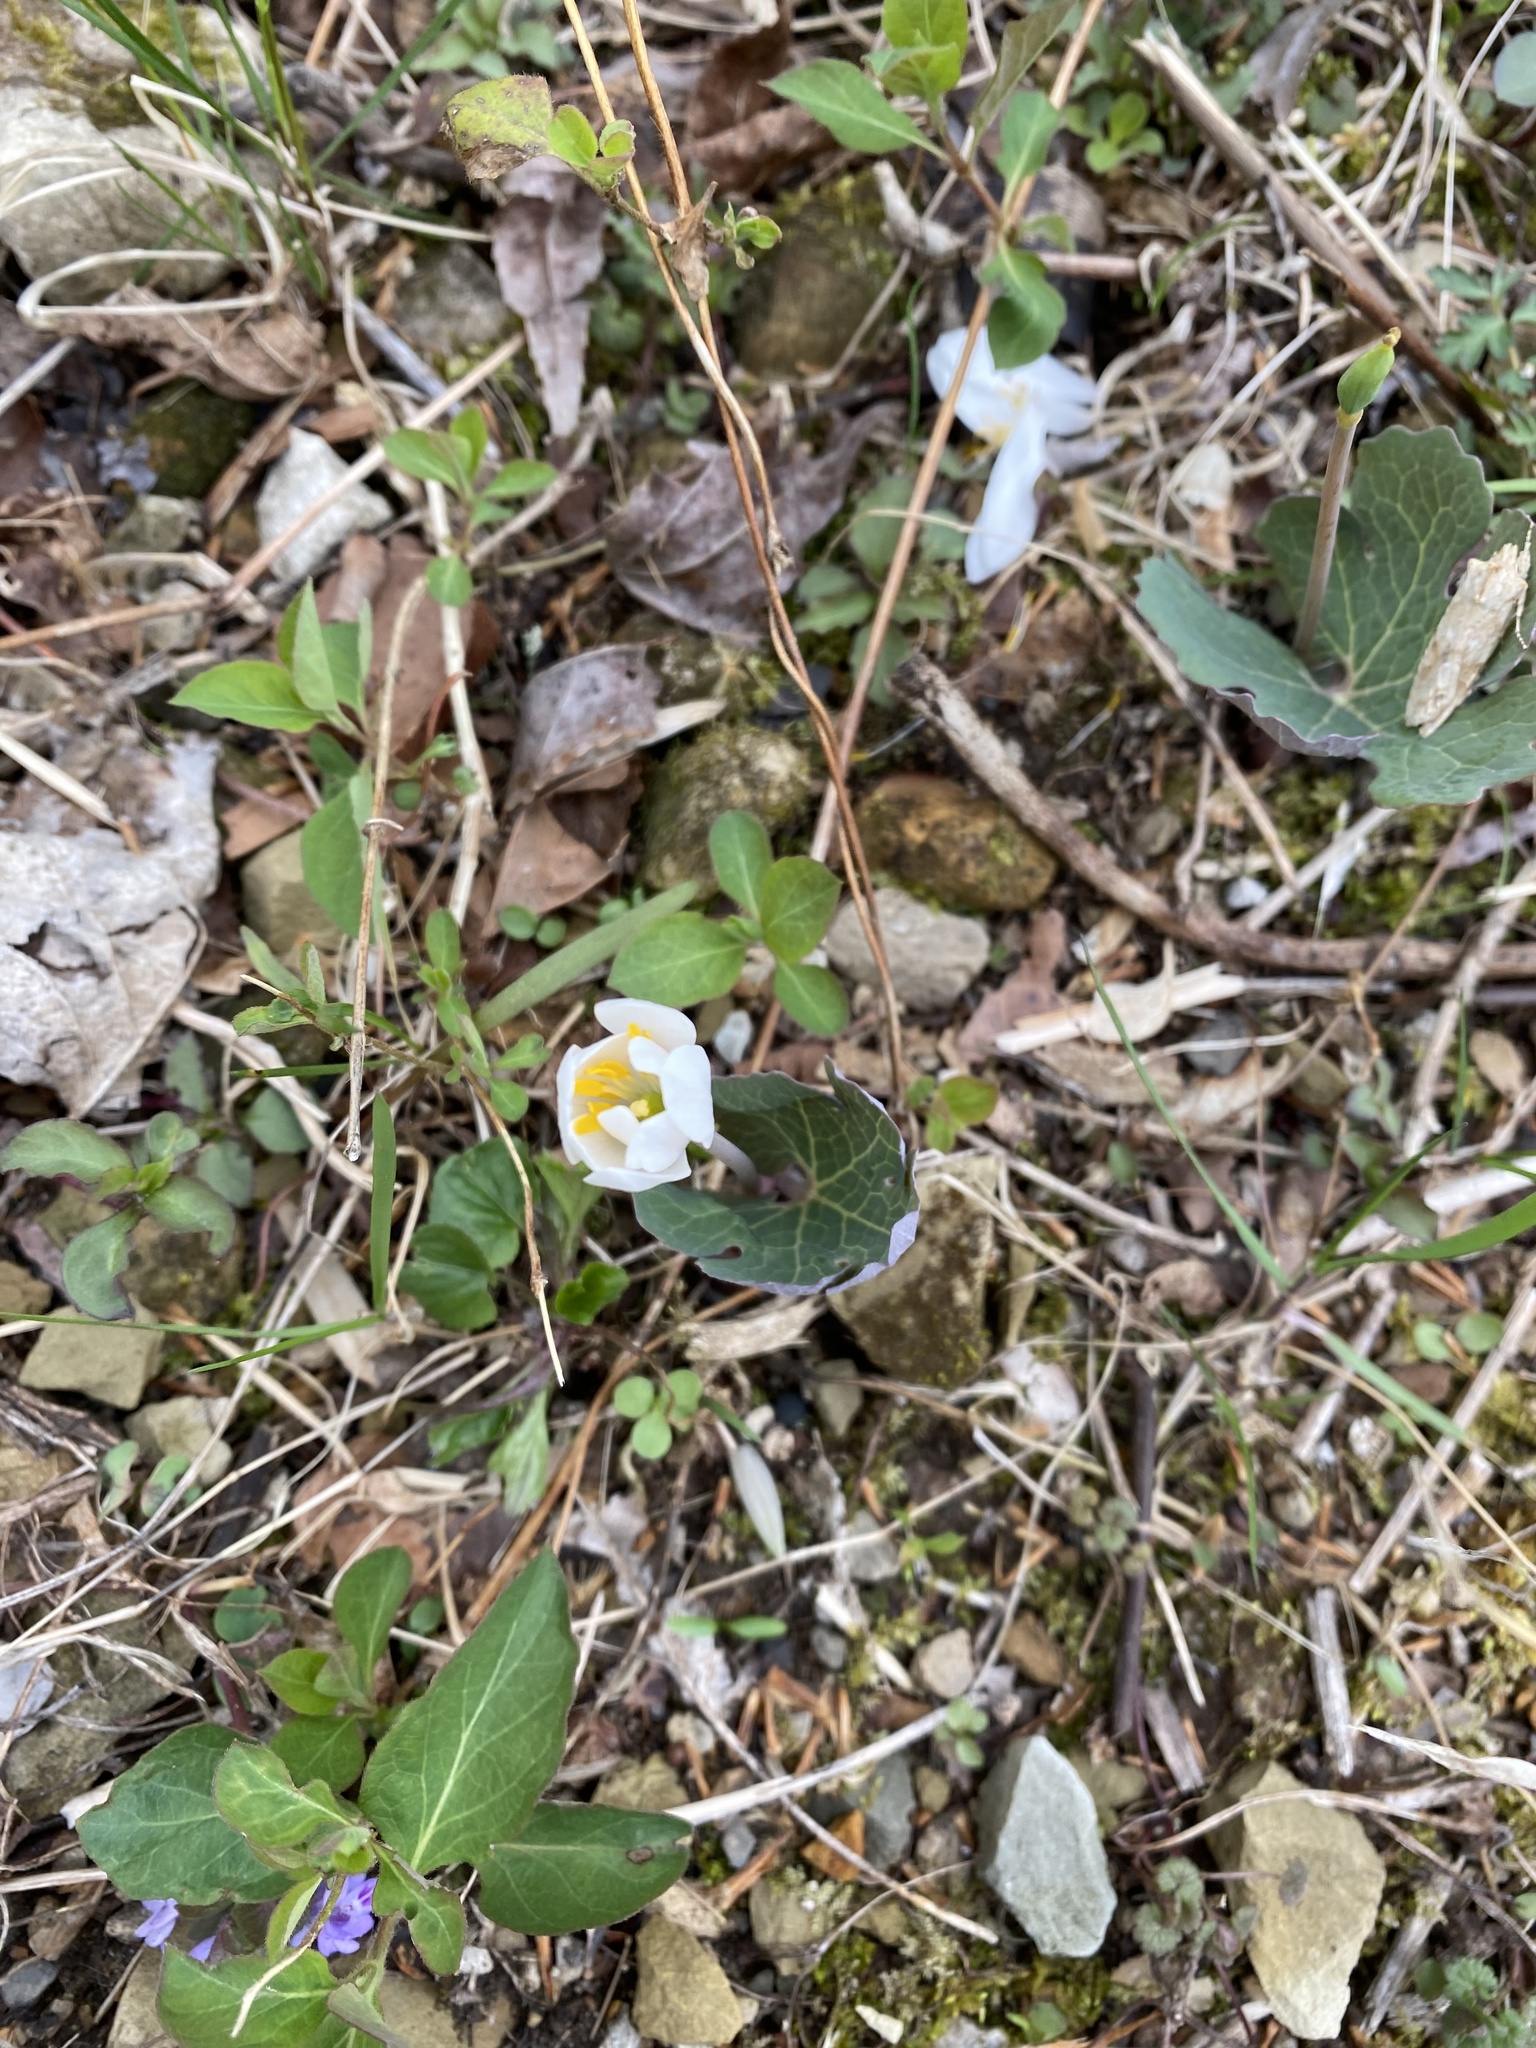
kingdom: Plantae
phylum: Tracheophyta
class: Magnoliopsida
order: Ranunculales
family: Papaveraceae
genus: Sanguinaria
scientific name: Sanguinaria canadensis
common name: Bloodroot
